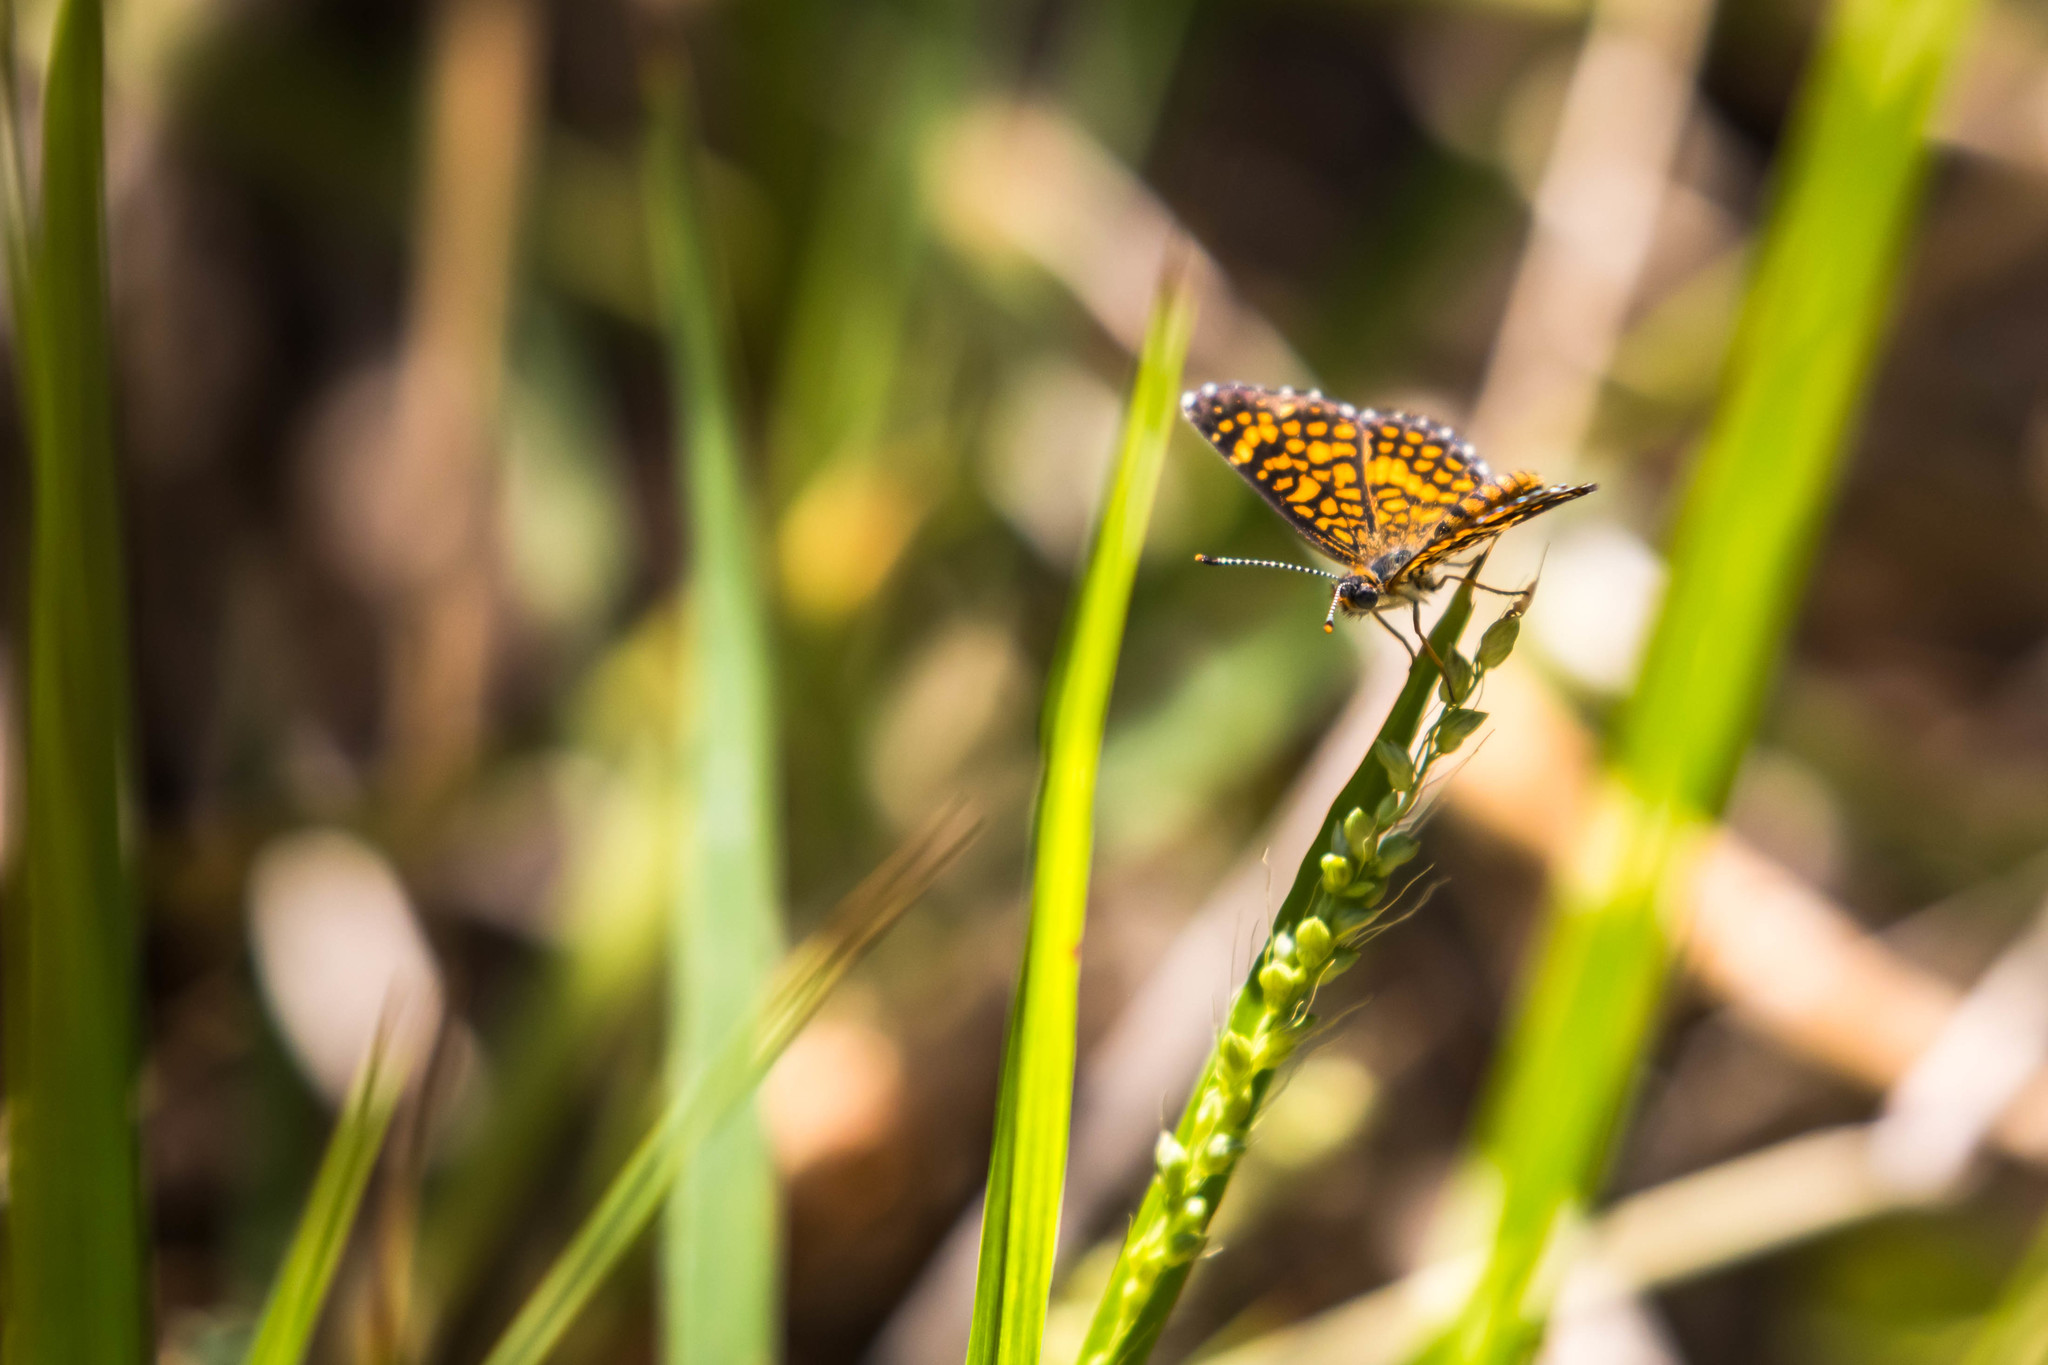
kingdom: Animalia
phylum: Arthropoda
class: Insecta
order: Lepidoptera
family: Nymphalidae
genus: Texola
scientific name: Texola elada
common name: Elada checkerspot
